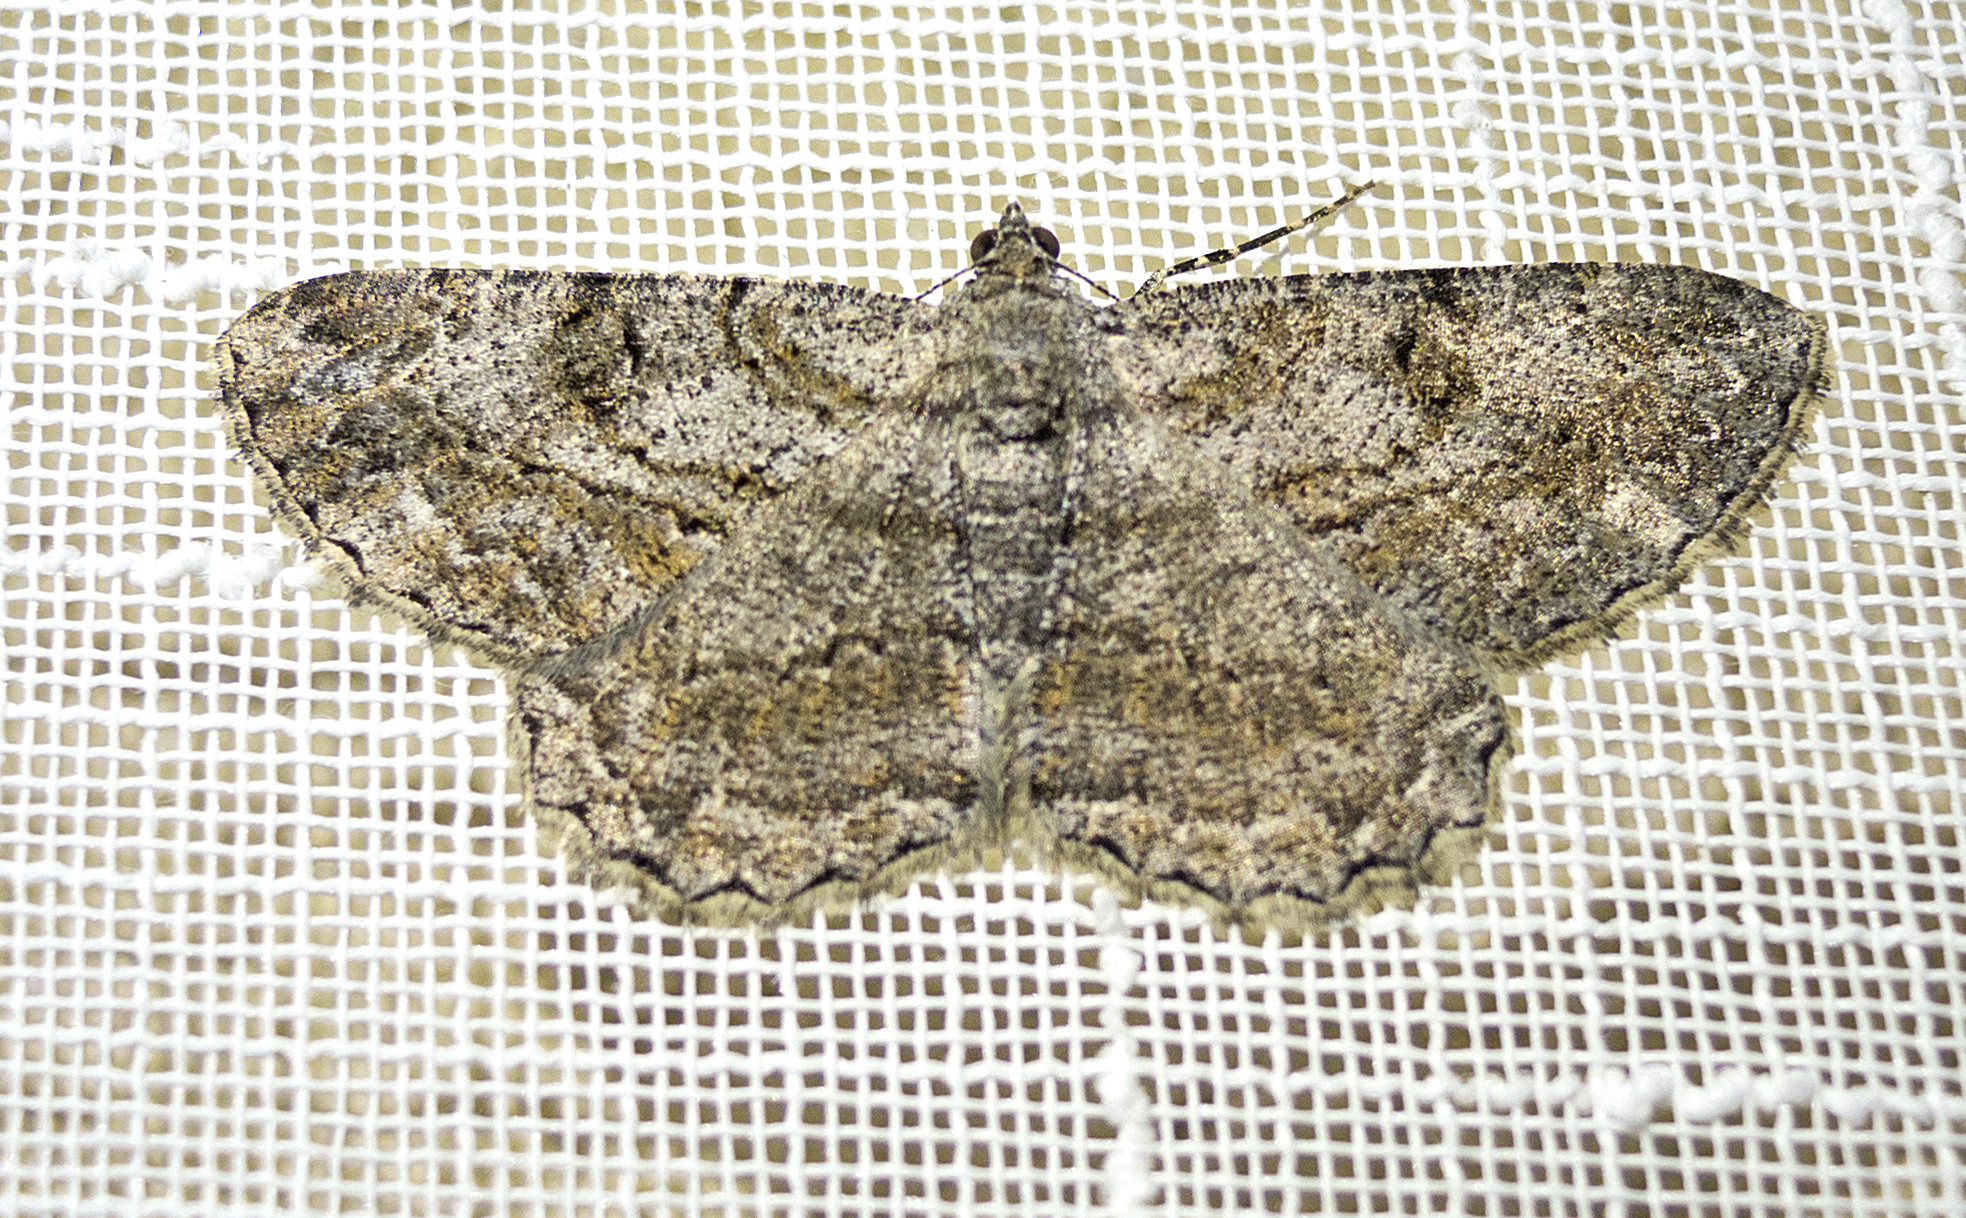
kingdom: Animalia
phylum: Arthropoda
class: Insecta
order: Lepidoptera
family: Geometridae
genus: Peribatodes
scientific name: Peribatodes rhomboidaria
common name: Willow beauty
